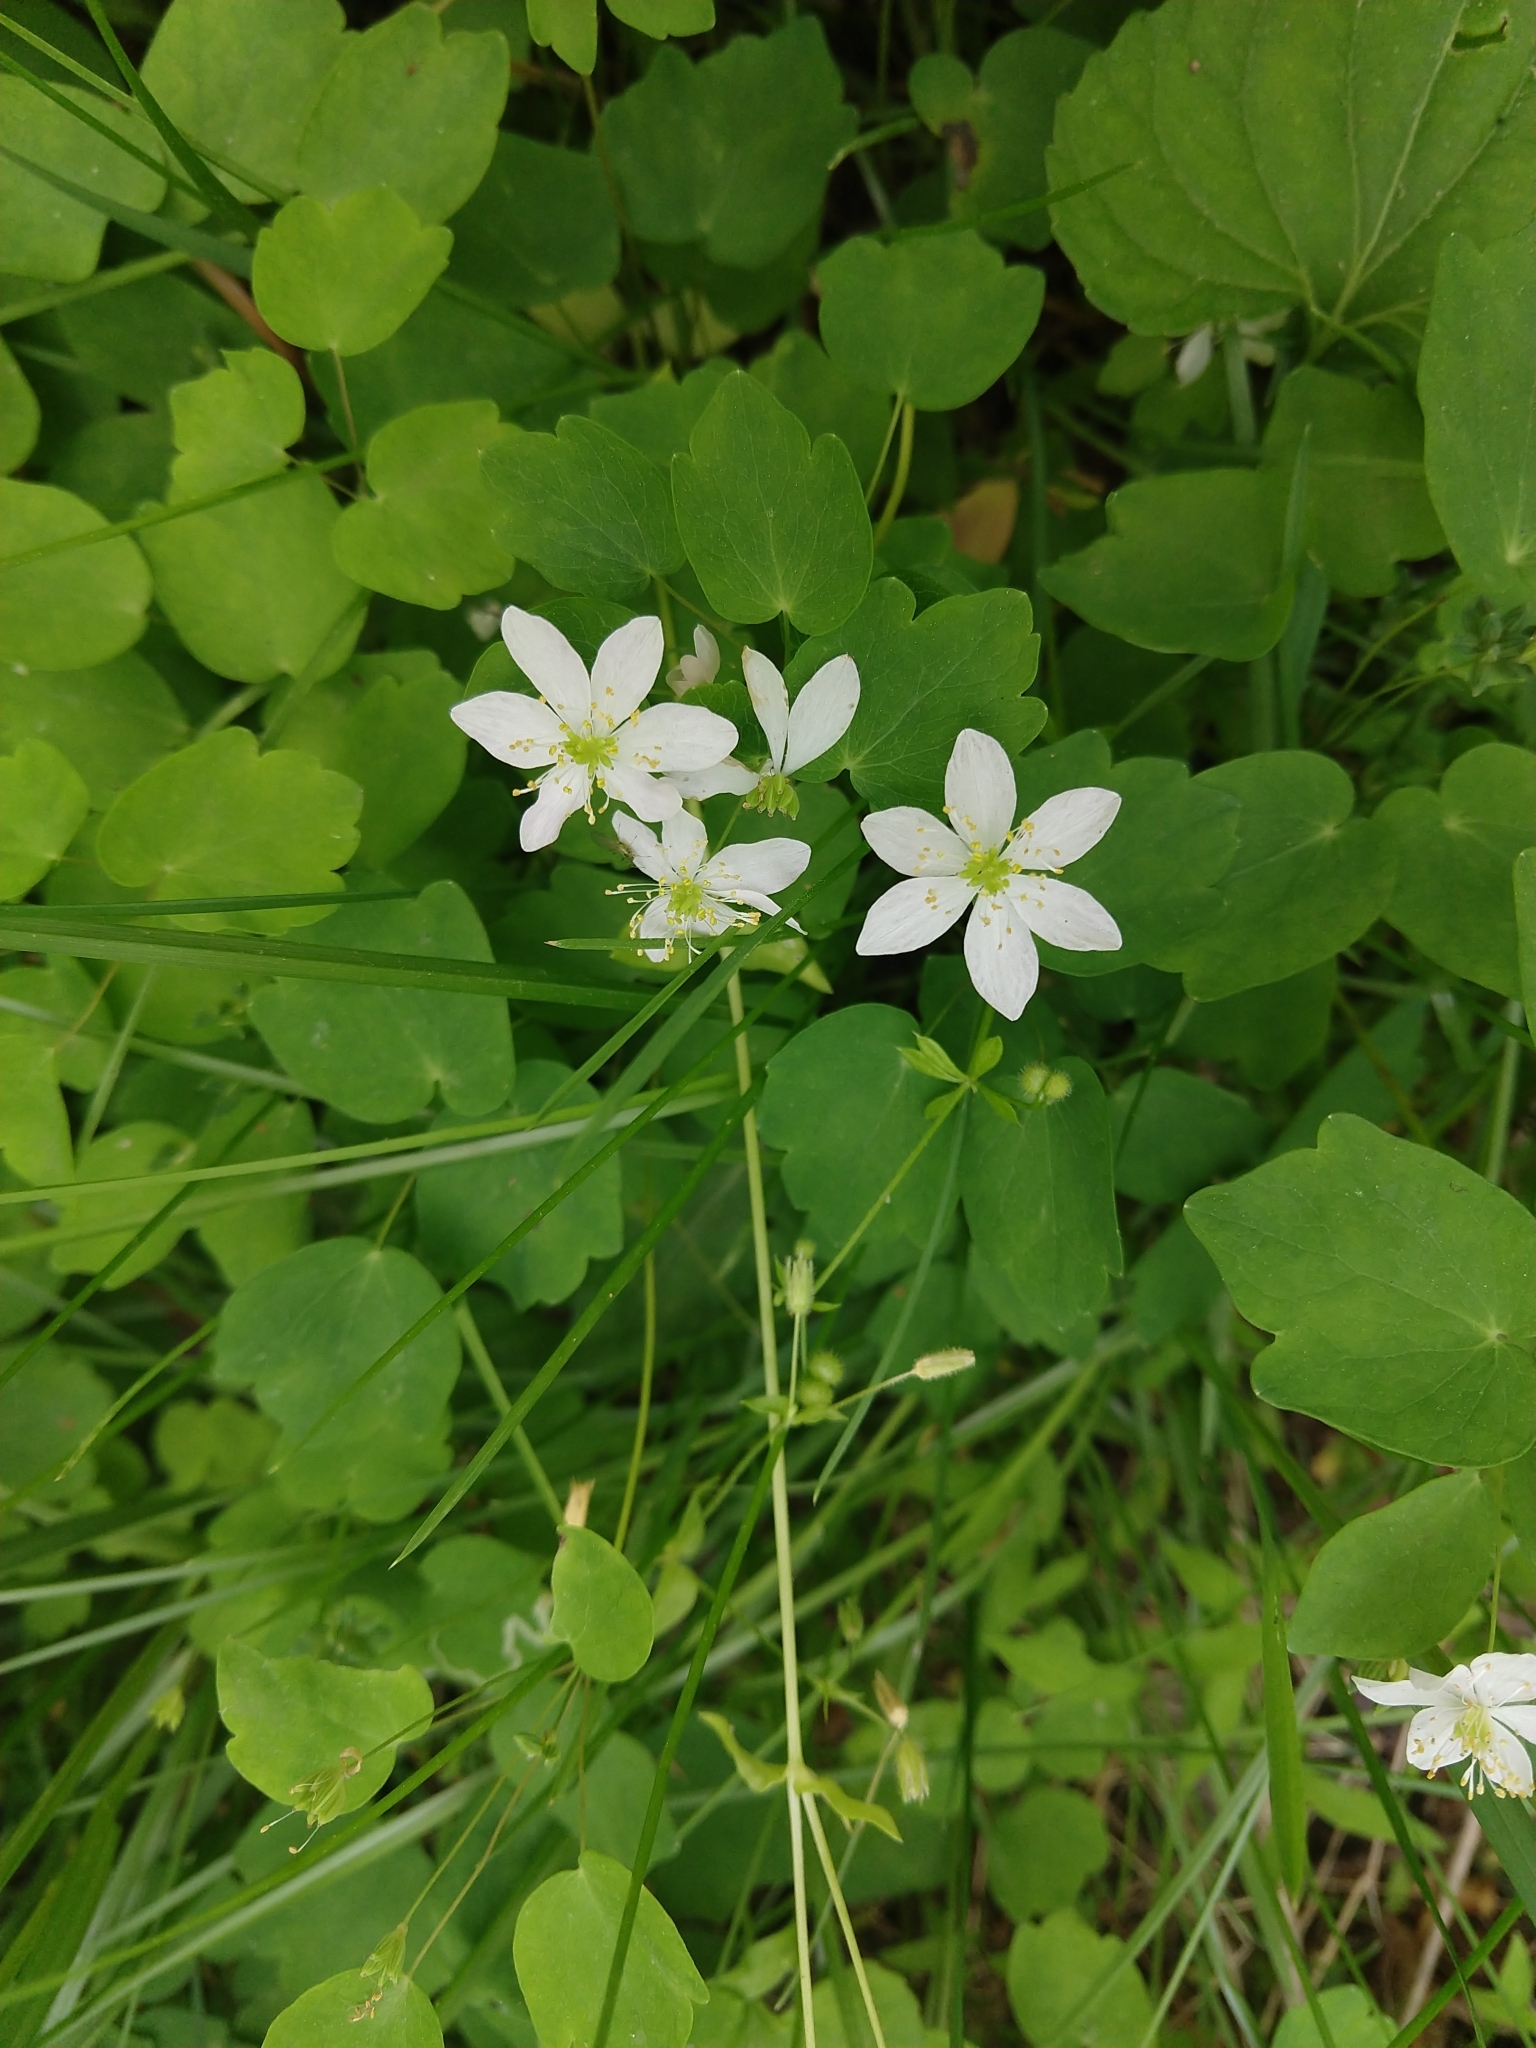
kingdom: Plantae
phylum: Tracheophyta
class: Magnoliopsida
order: Ranunculales
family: Ranunculaceae
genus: Thalictrum
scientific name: Thalictrum thalictroides
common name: Rue-anemone
